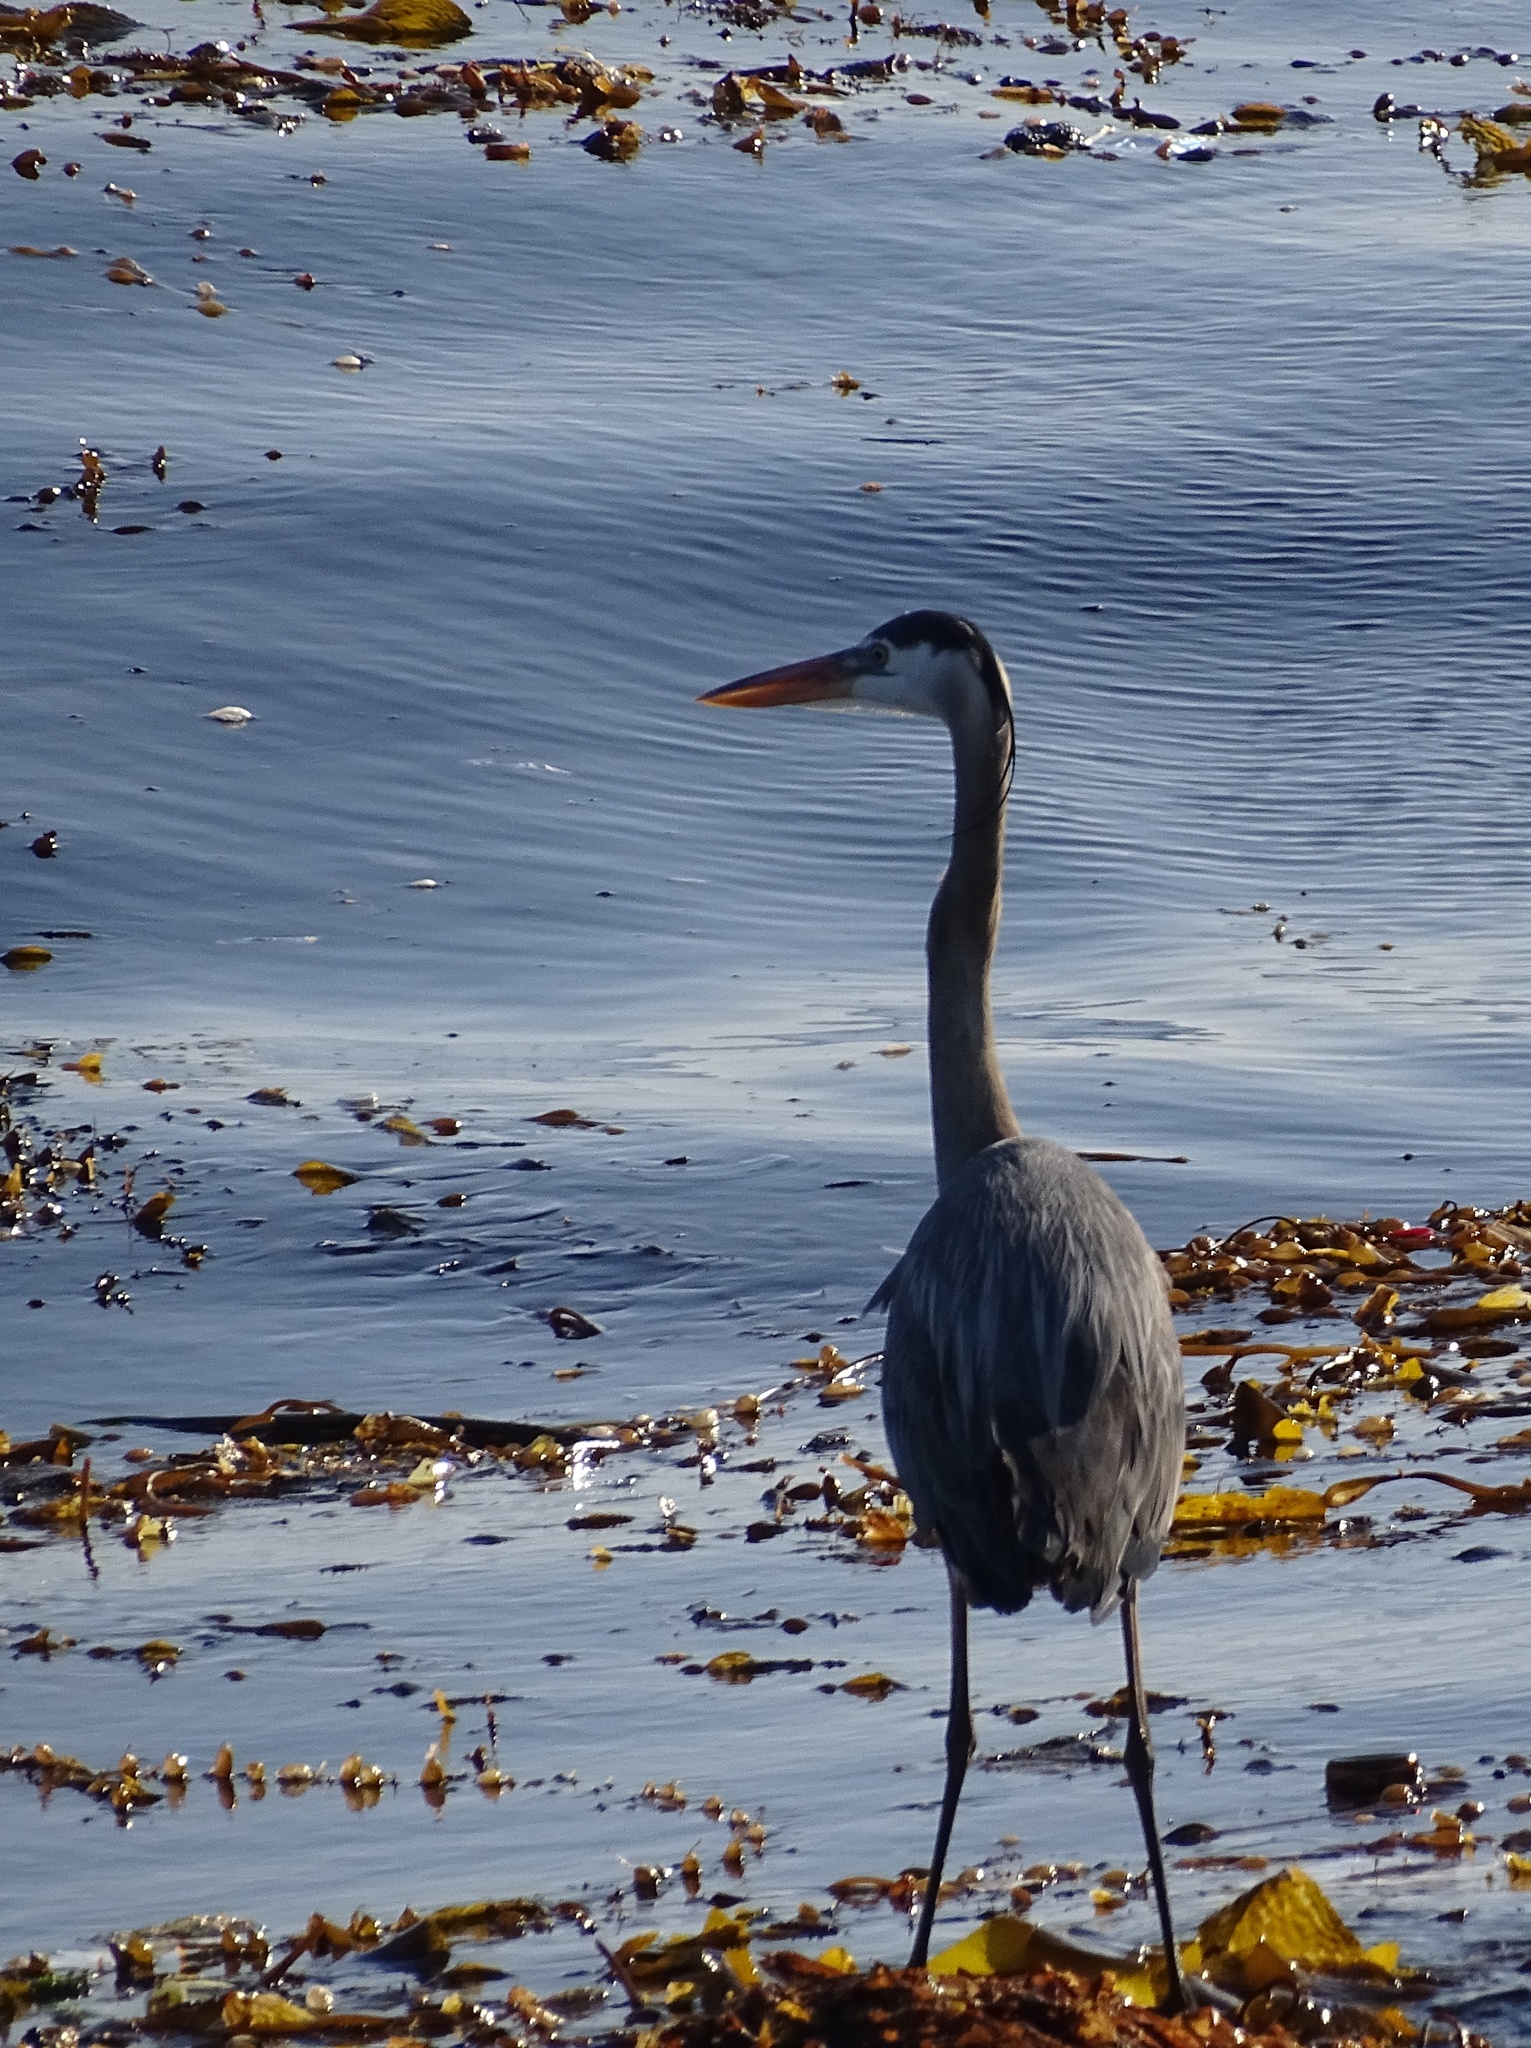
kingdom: Animalia
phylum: Chordata
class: Aves
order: Pelecaniformes
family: Ardeidae
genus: Ardea
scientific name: Ardea herodias
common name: Great blue heron
